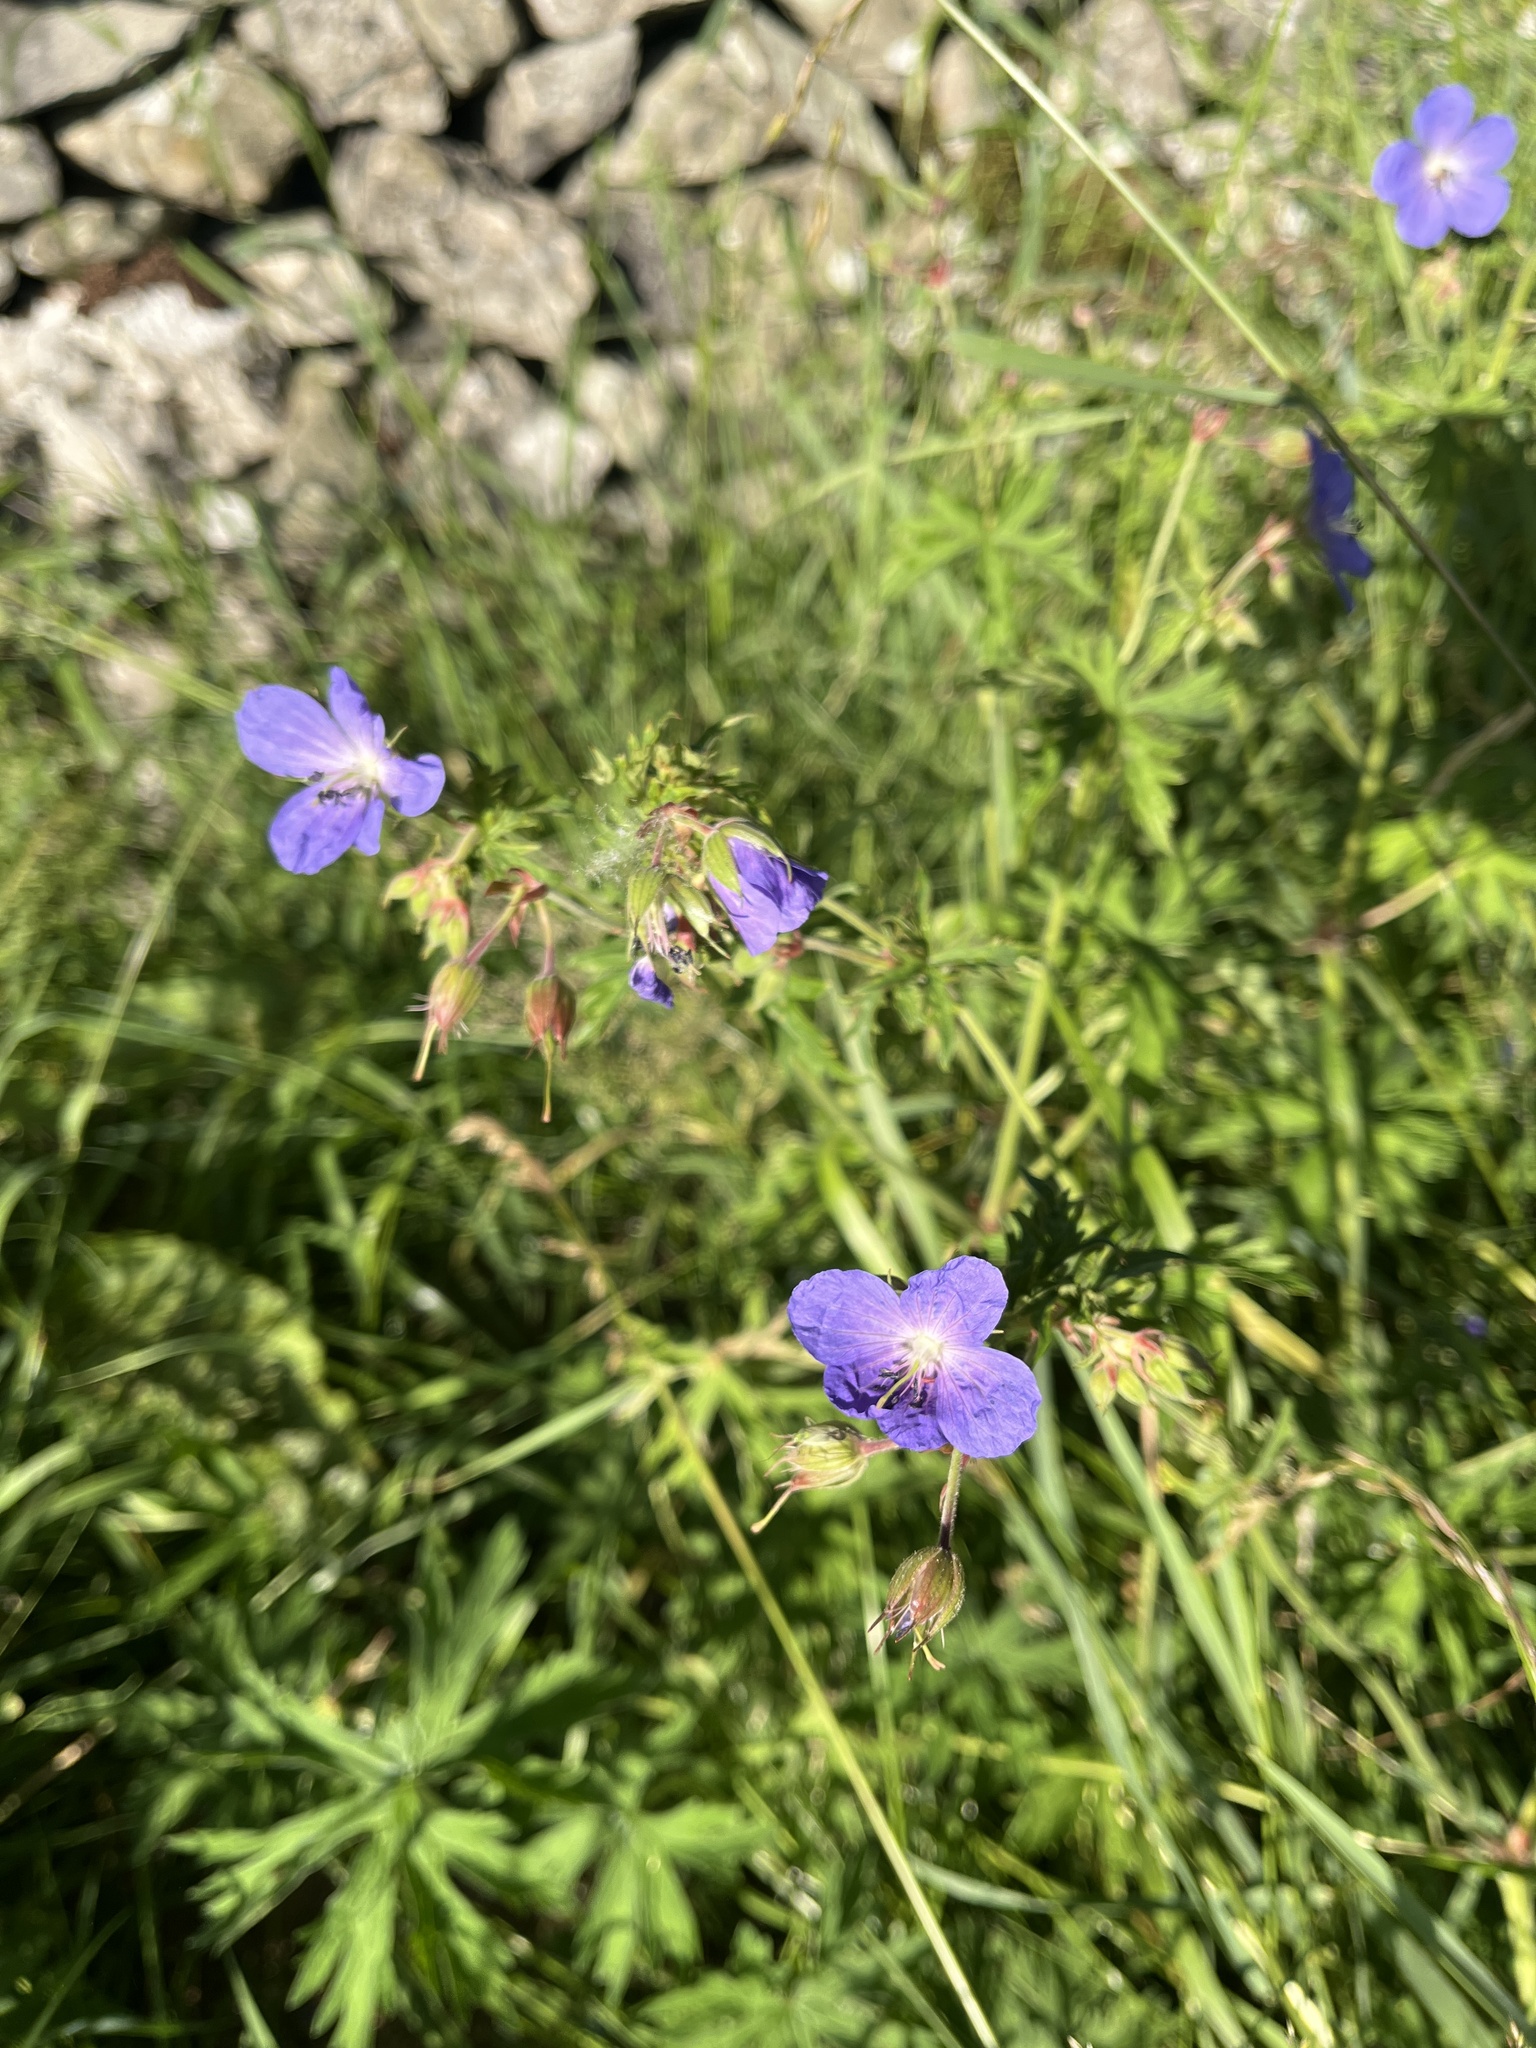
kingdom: Plantae
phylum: Tracheophyta
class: Magnoliopsida
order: Geraniales
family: Geraniaceae
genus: Geranium
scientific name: Geranium pratense
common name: Meadow crane's-bill
